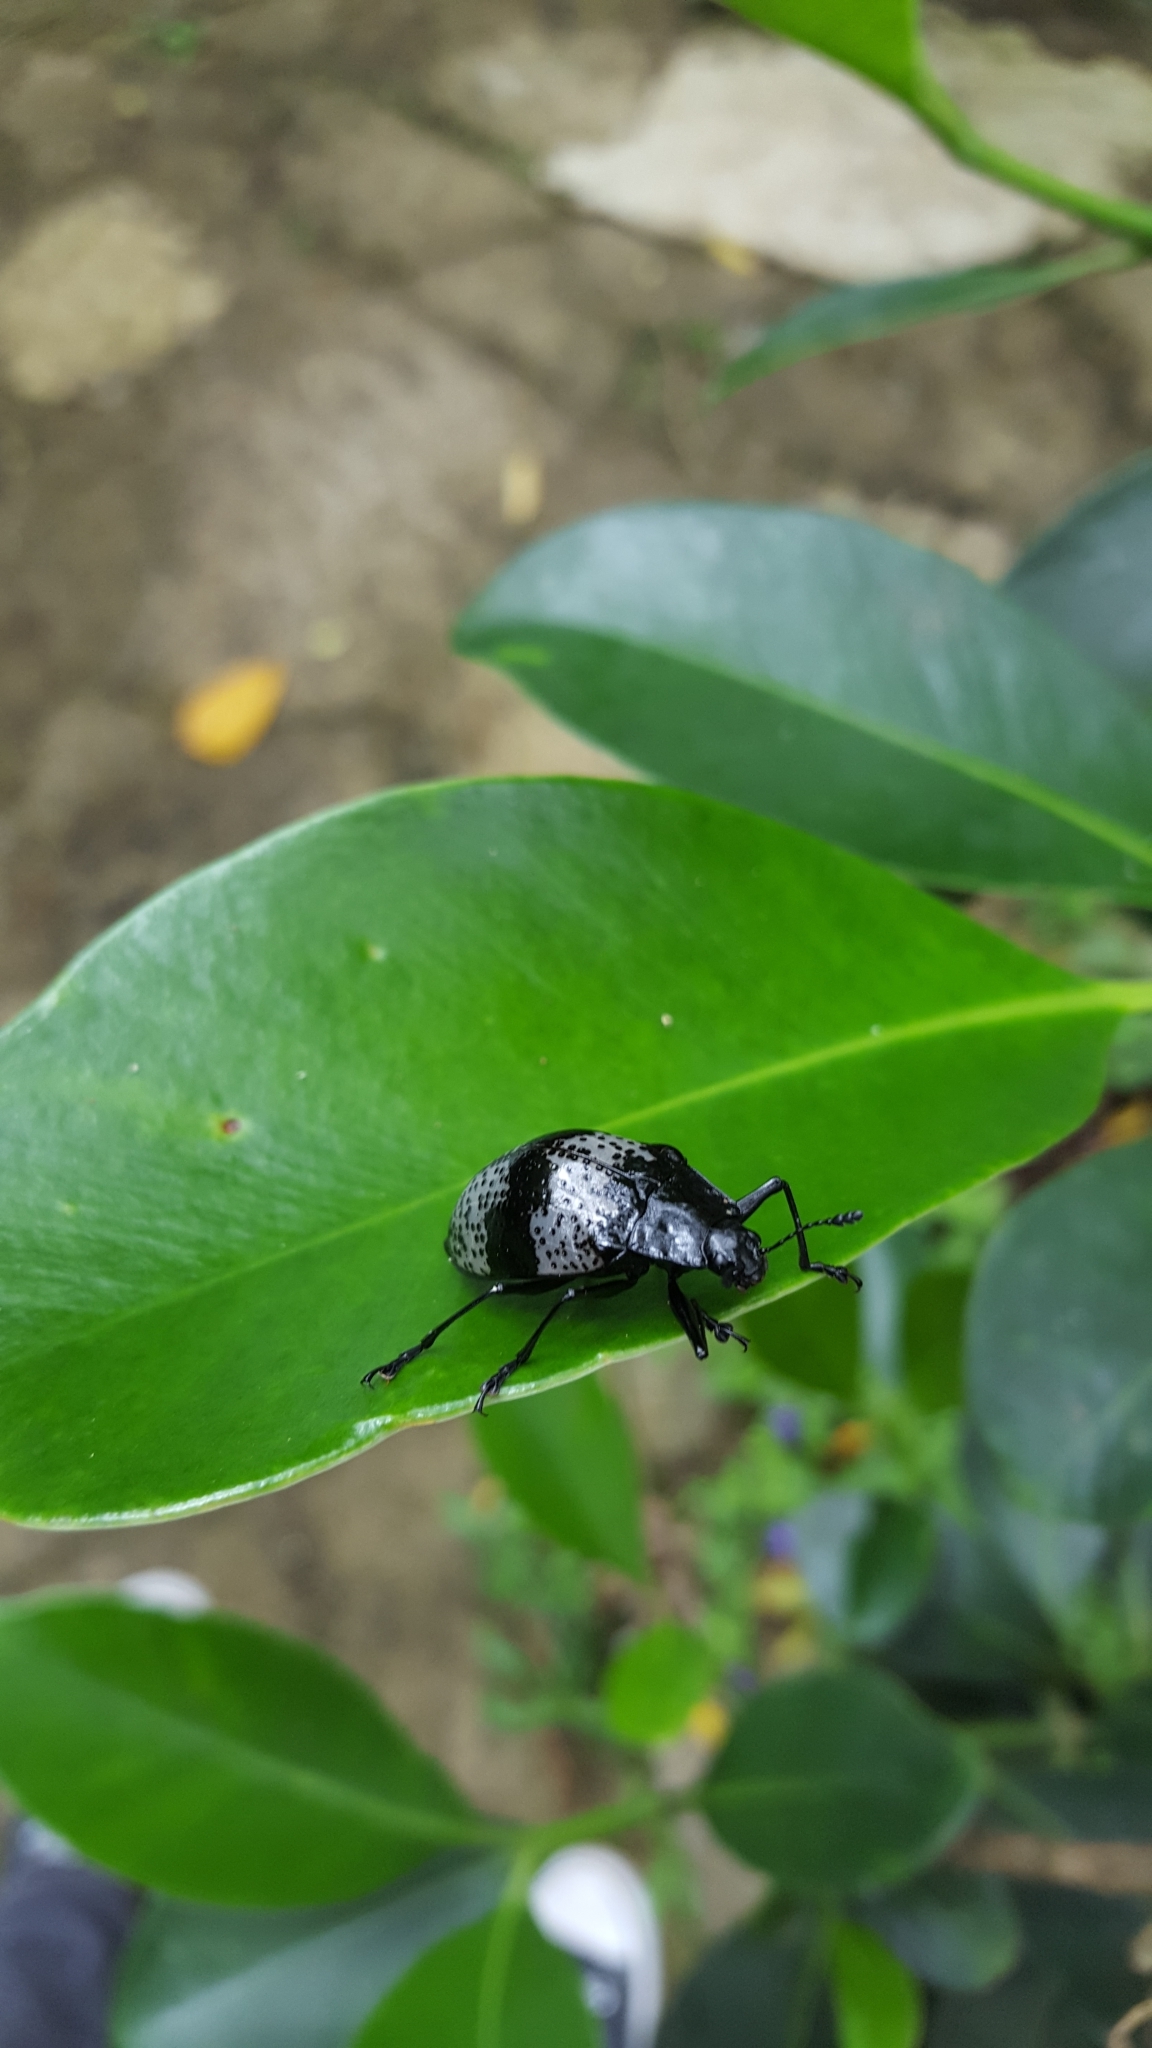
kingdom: Animalia
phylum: Arthropoda
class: Insecta
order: Coleoptera
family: Erotylidae
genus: Gibbifer
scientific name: Gibbifer
